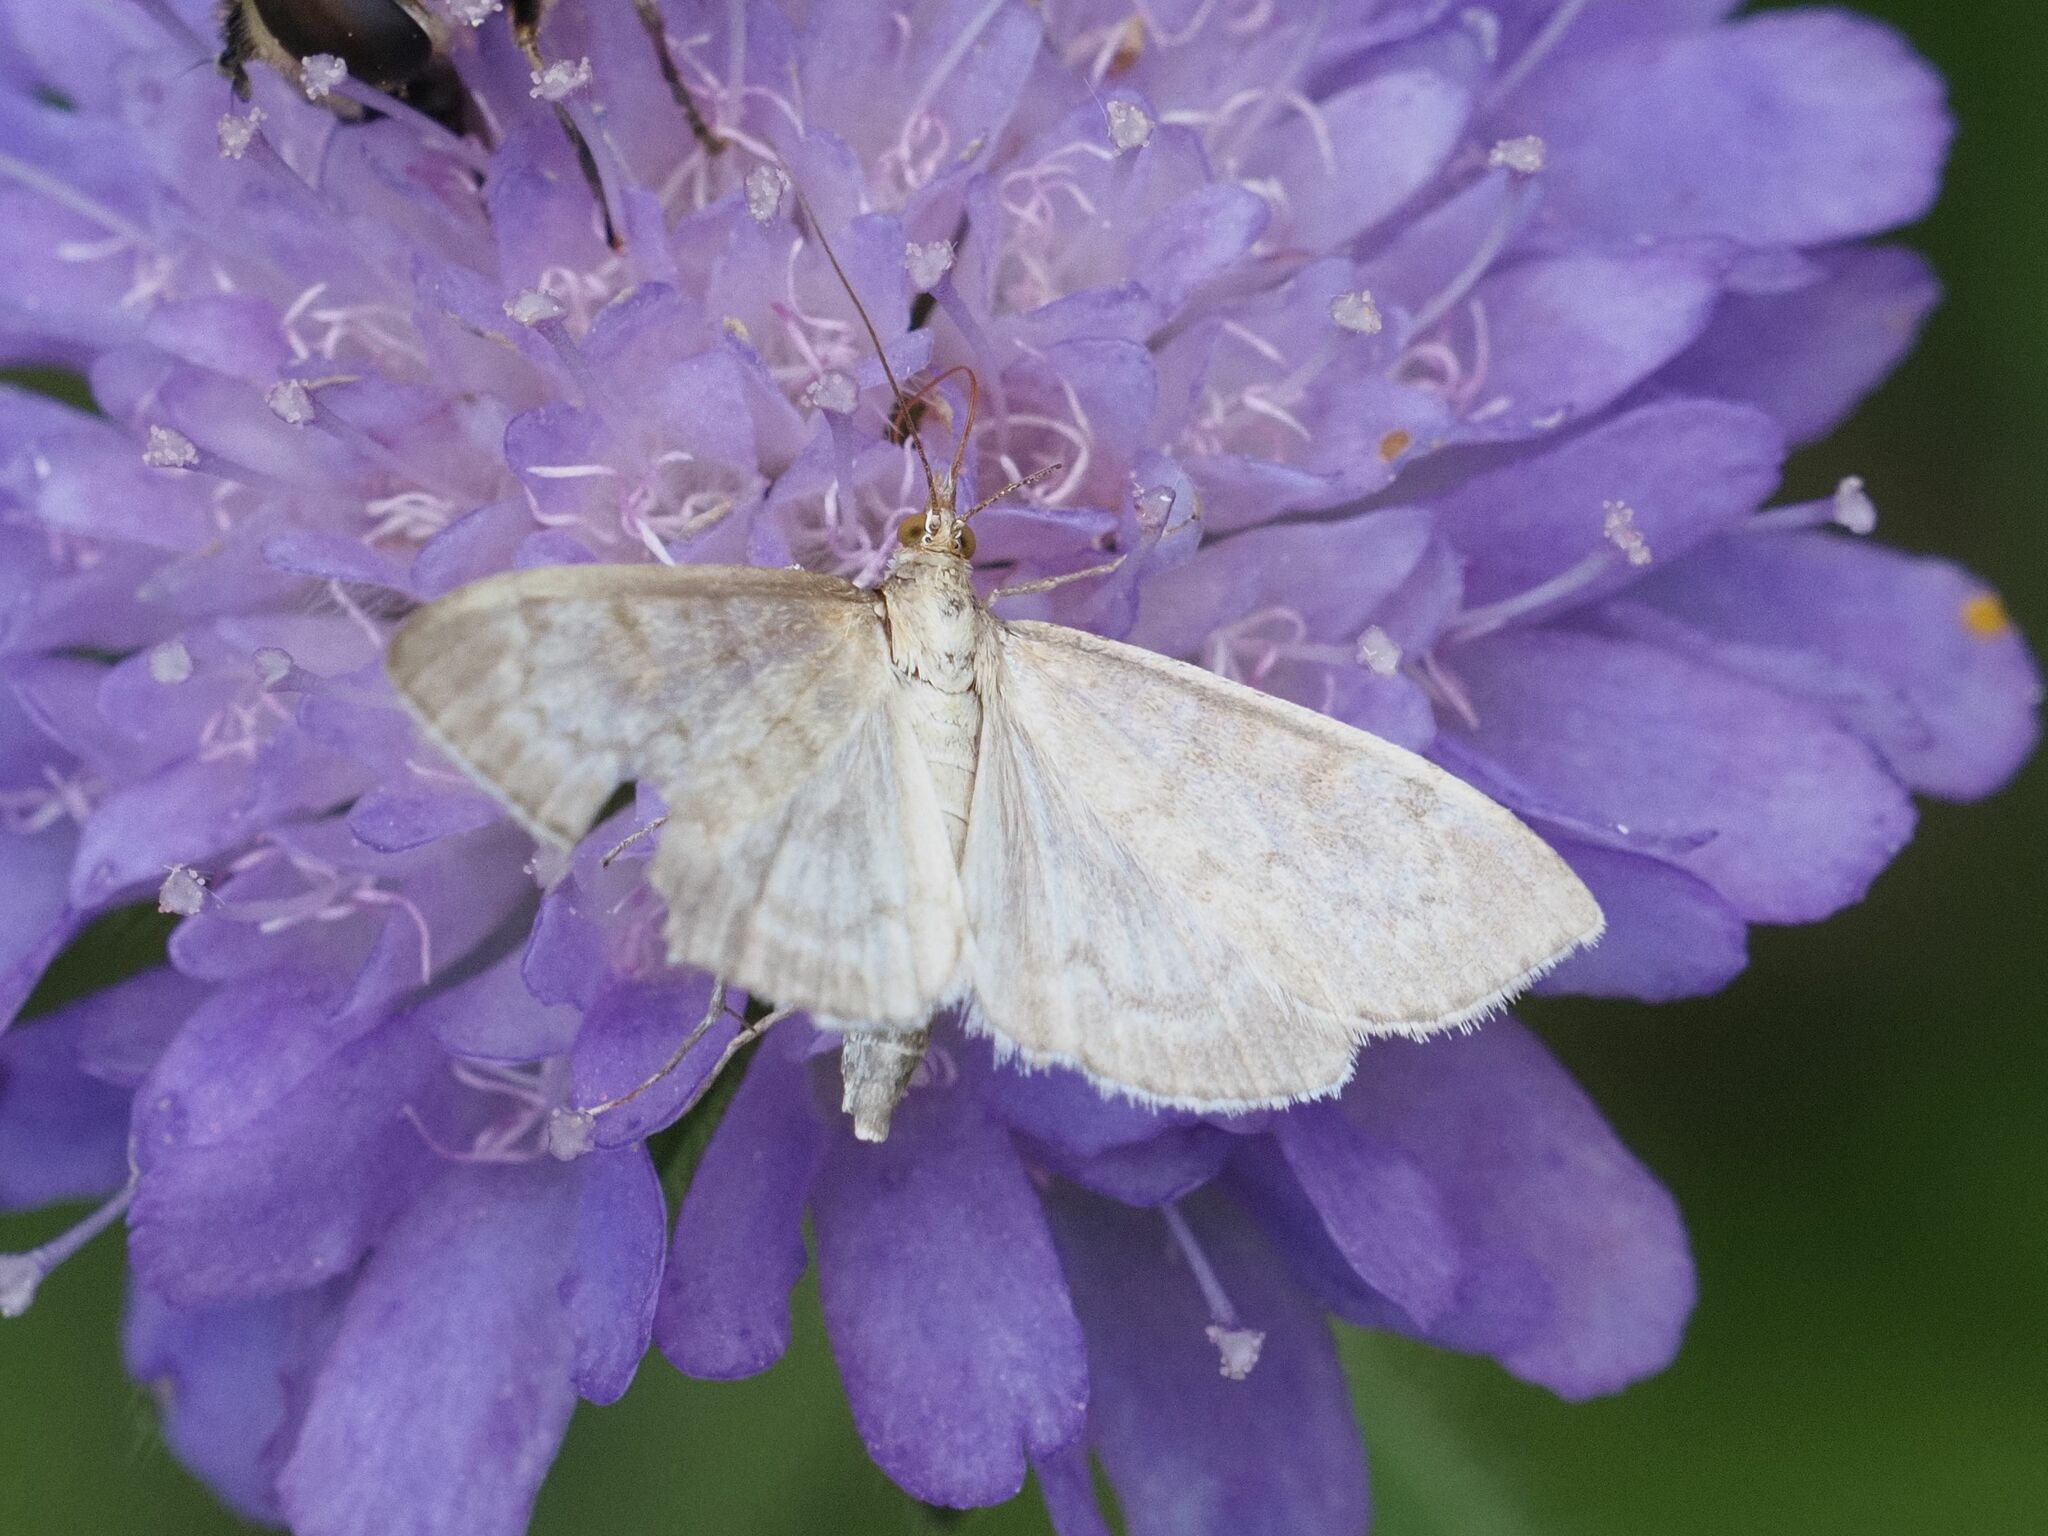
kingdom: Animalia
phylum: Arthropoda
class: Insecta
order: Lepidoptera
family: Crambidae
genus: Patania
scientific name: Patania ruralis
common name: Mother of pearl
